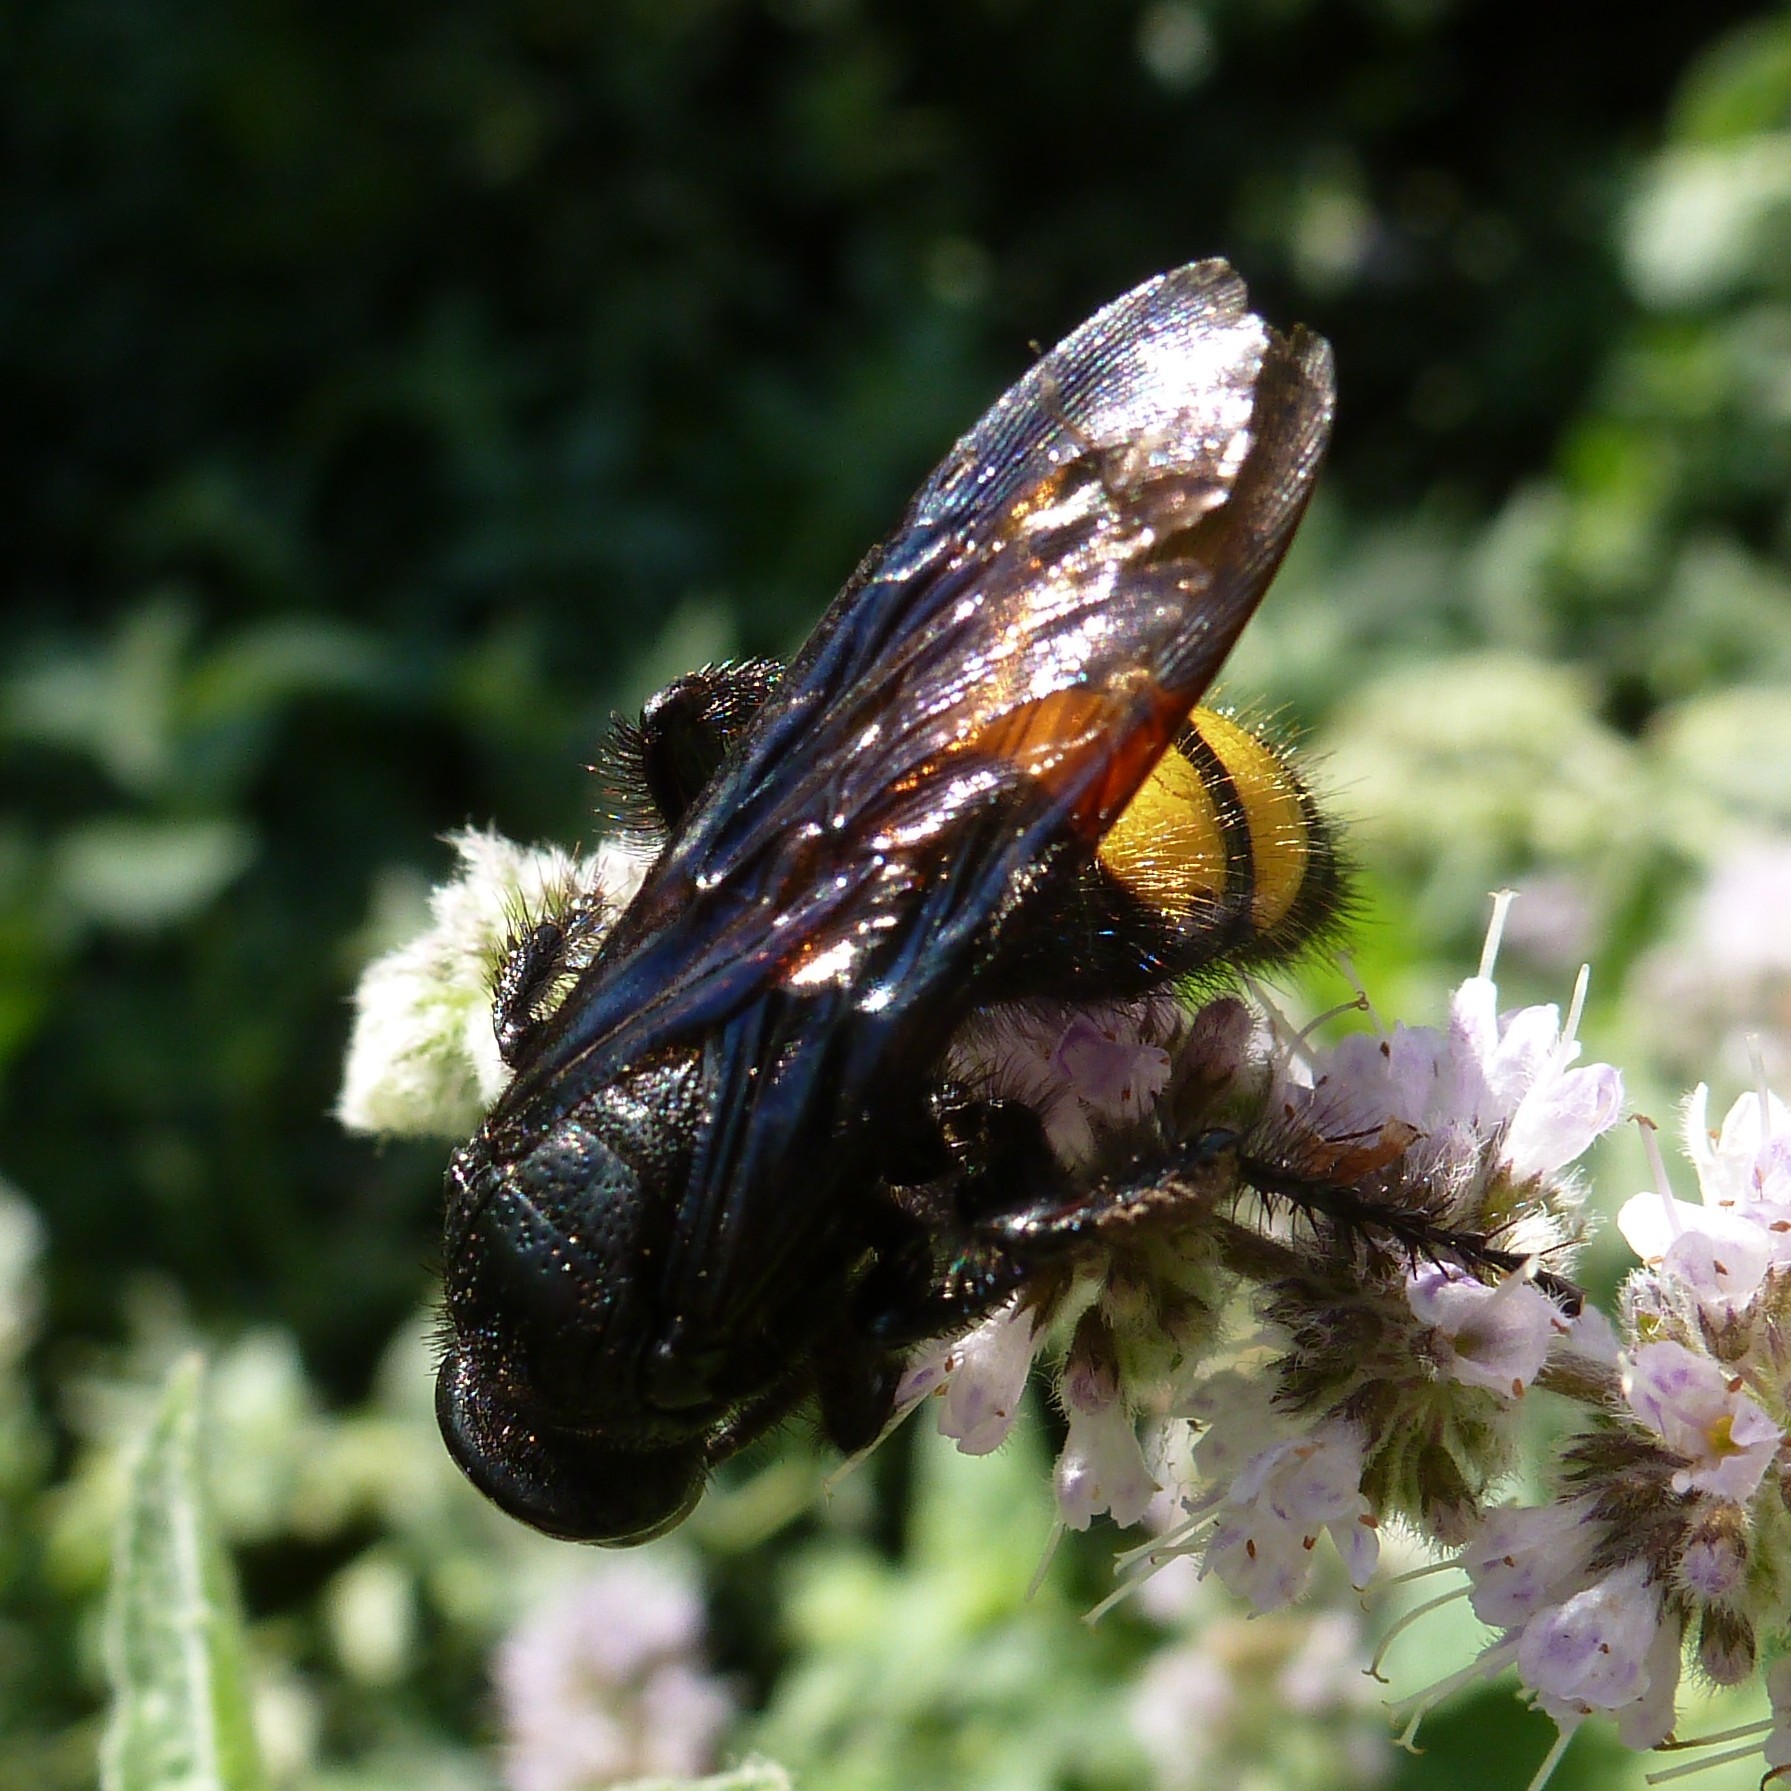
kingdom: Animalia
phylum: Arthropoda
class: Insecta
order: Hymenoptera
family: Scoliidae
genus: Scolia
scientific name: Scolia hirta
